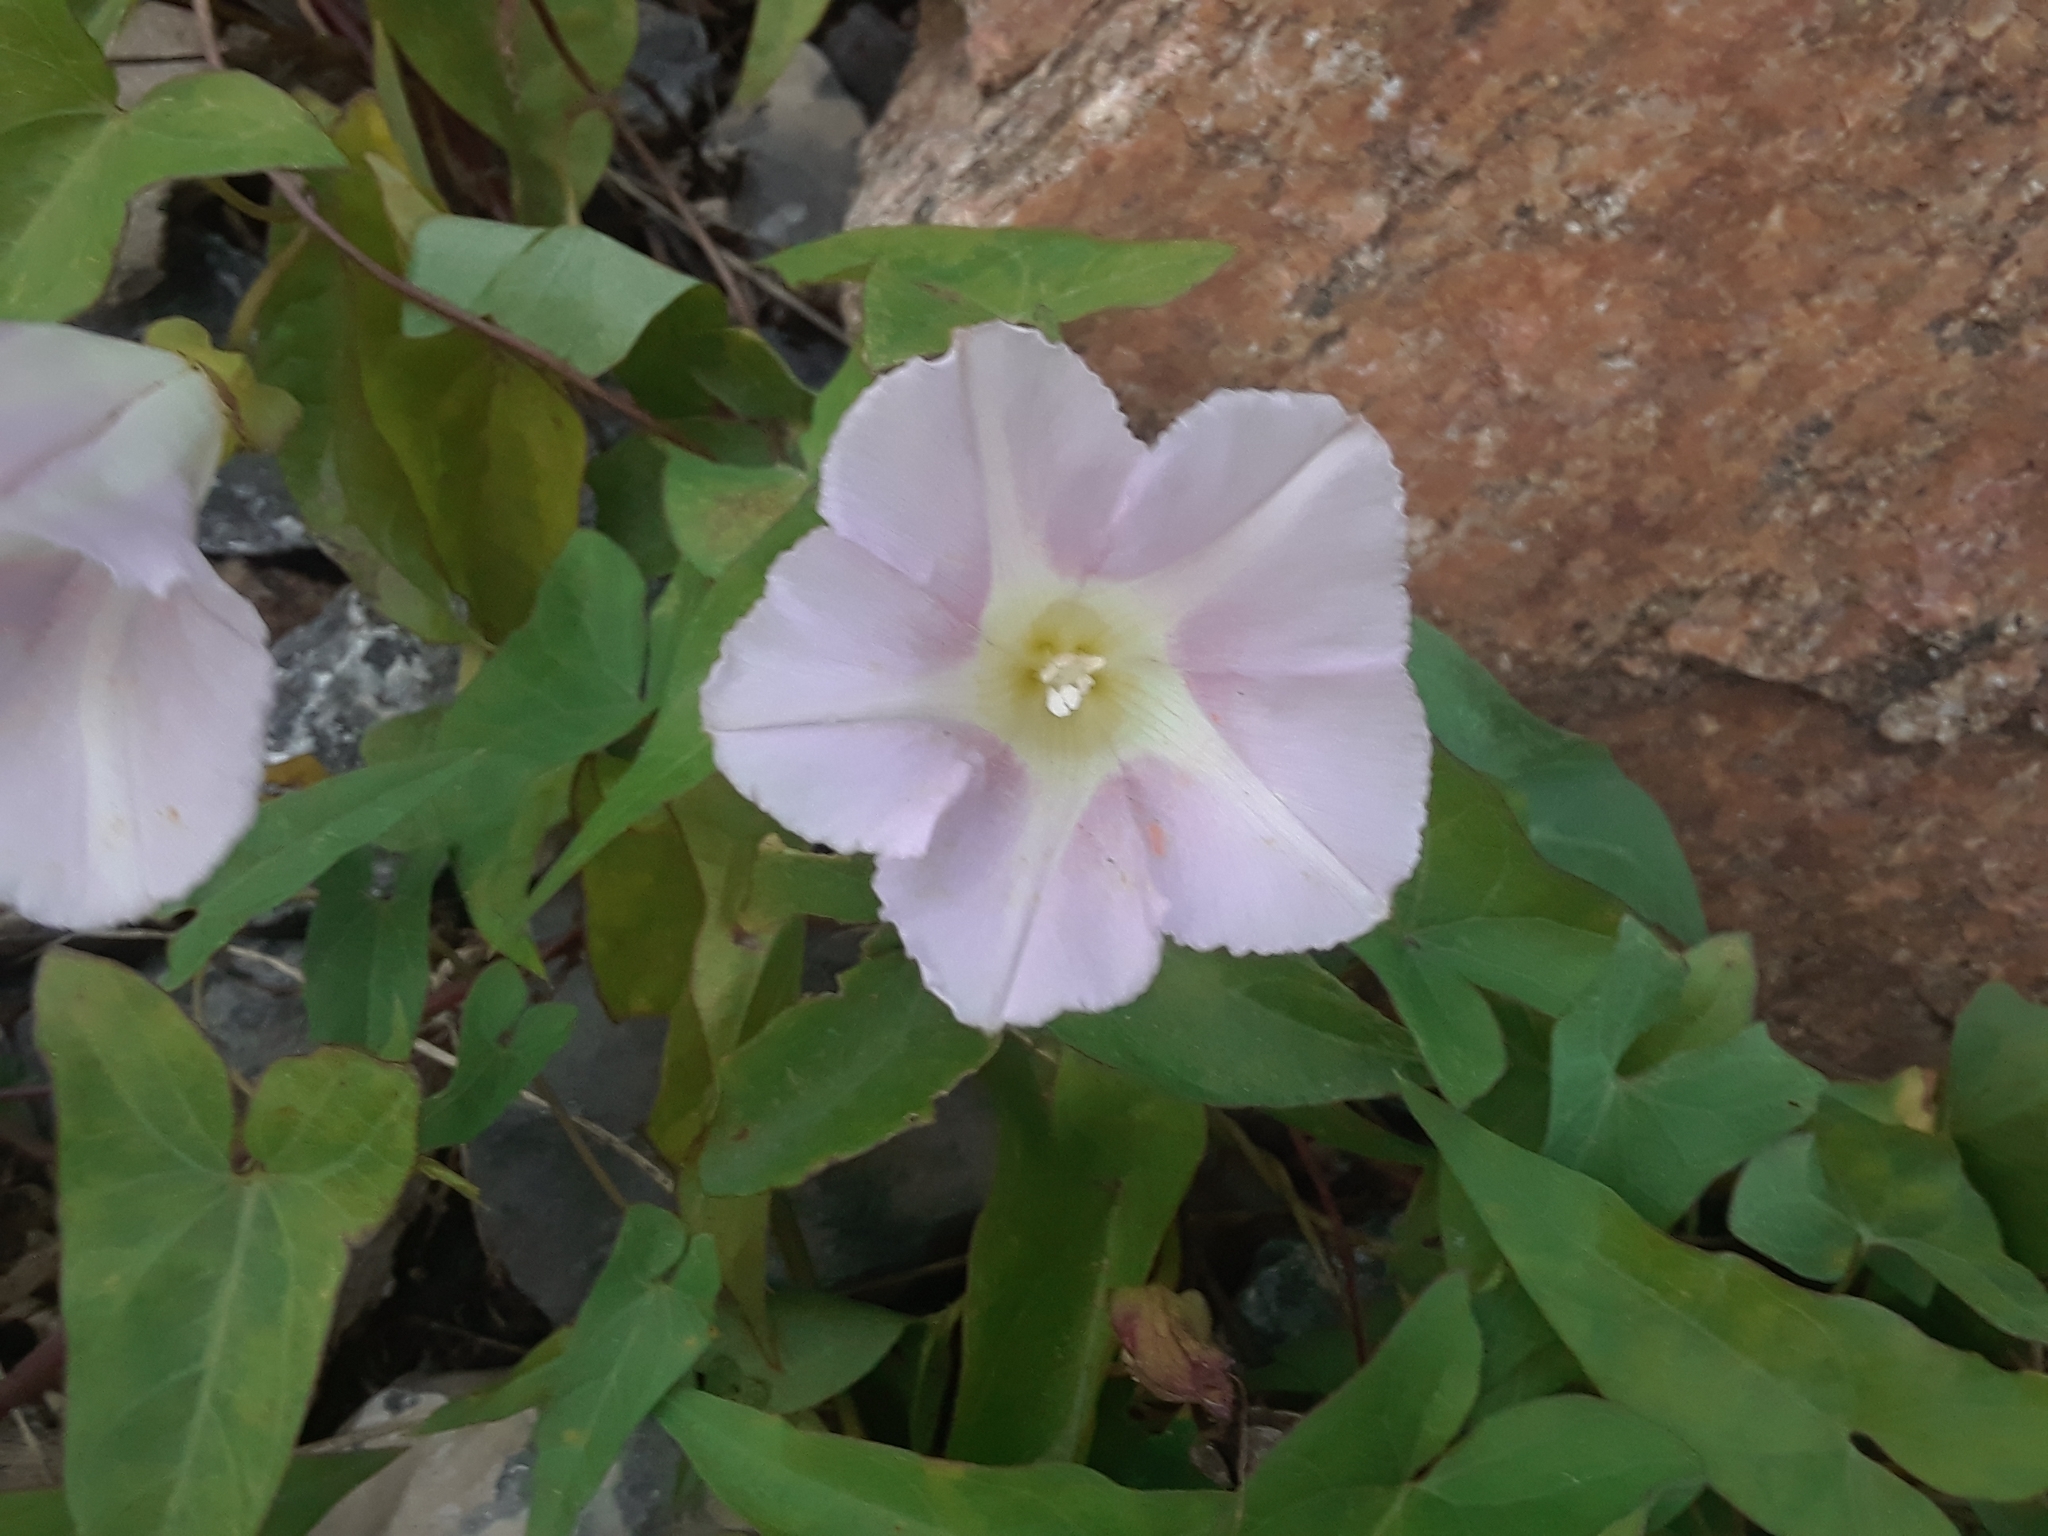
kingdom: Plantae
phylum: Tracheophyta
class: Magnoliopsida
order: Solanales
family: Convolvulaceae
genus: Calystegia
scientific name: Calystegia sepium
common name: Hedge bindweed
